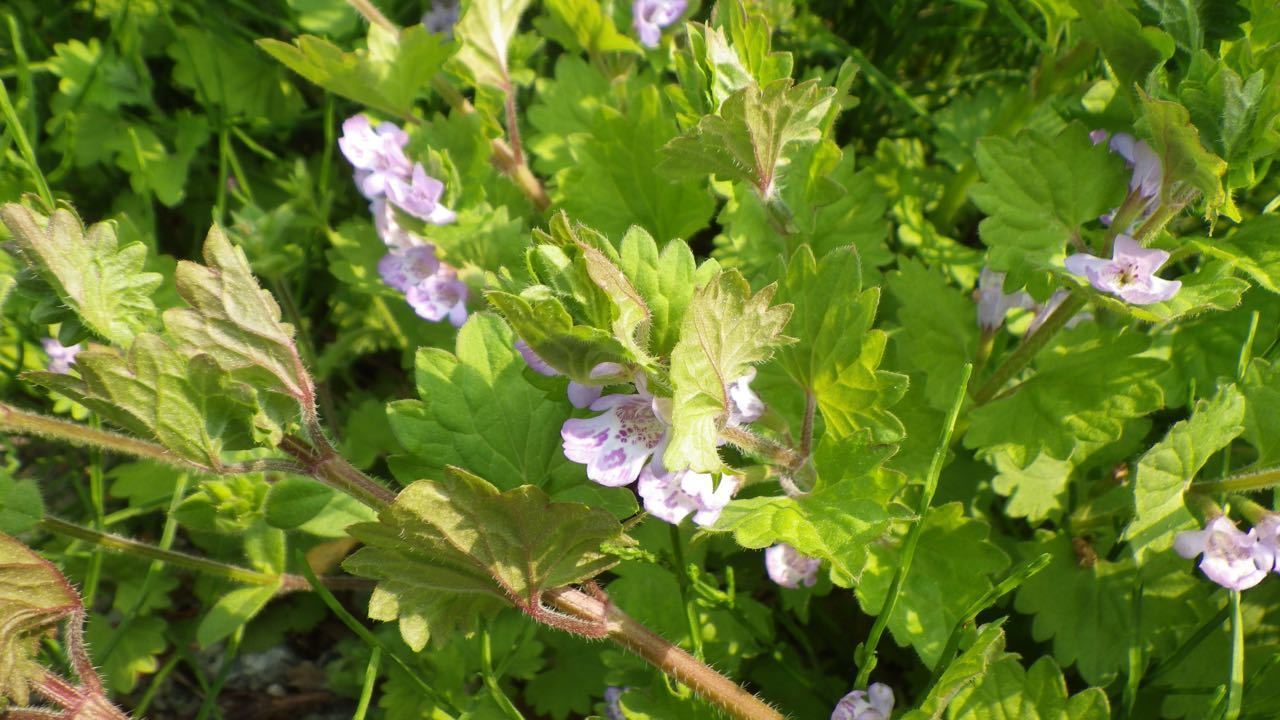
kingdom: Plantae
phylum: Tracheophyta
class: Magnoliopsida
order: Lamiales
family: Lamiaceae
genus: Glechoma
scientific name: Glechoma grandis
